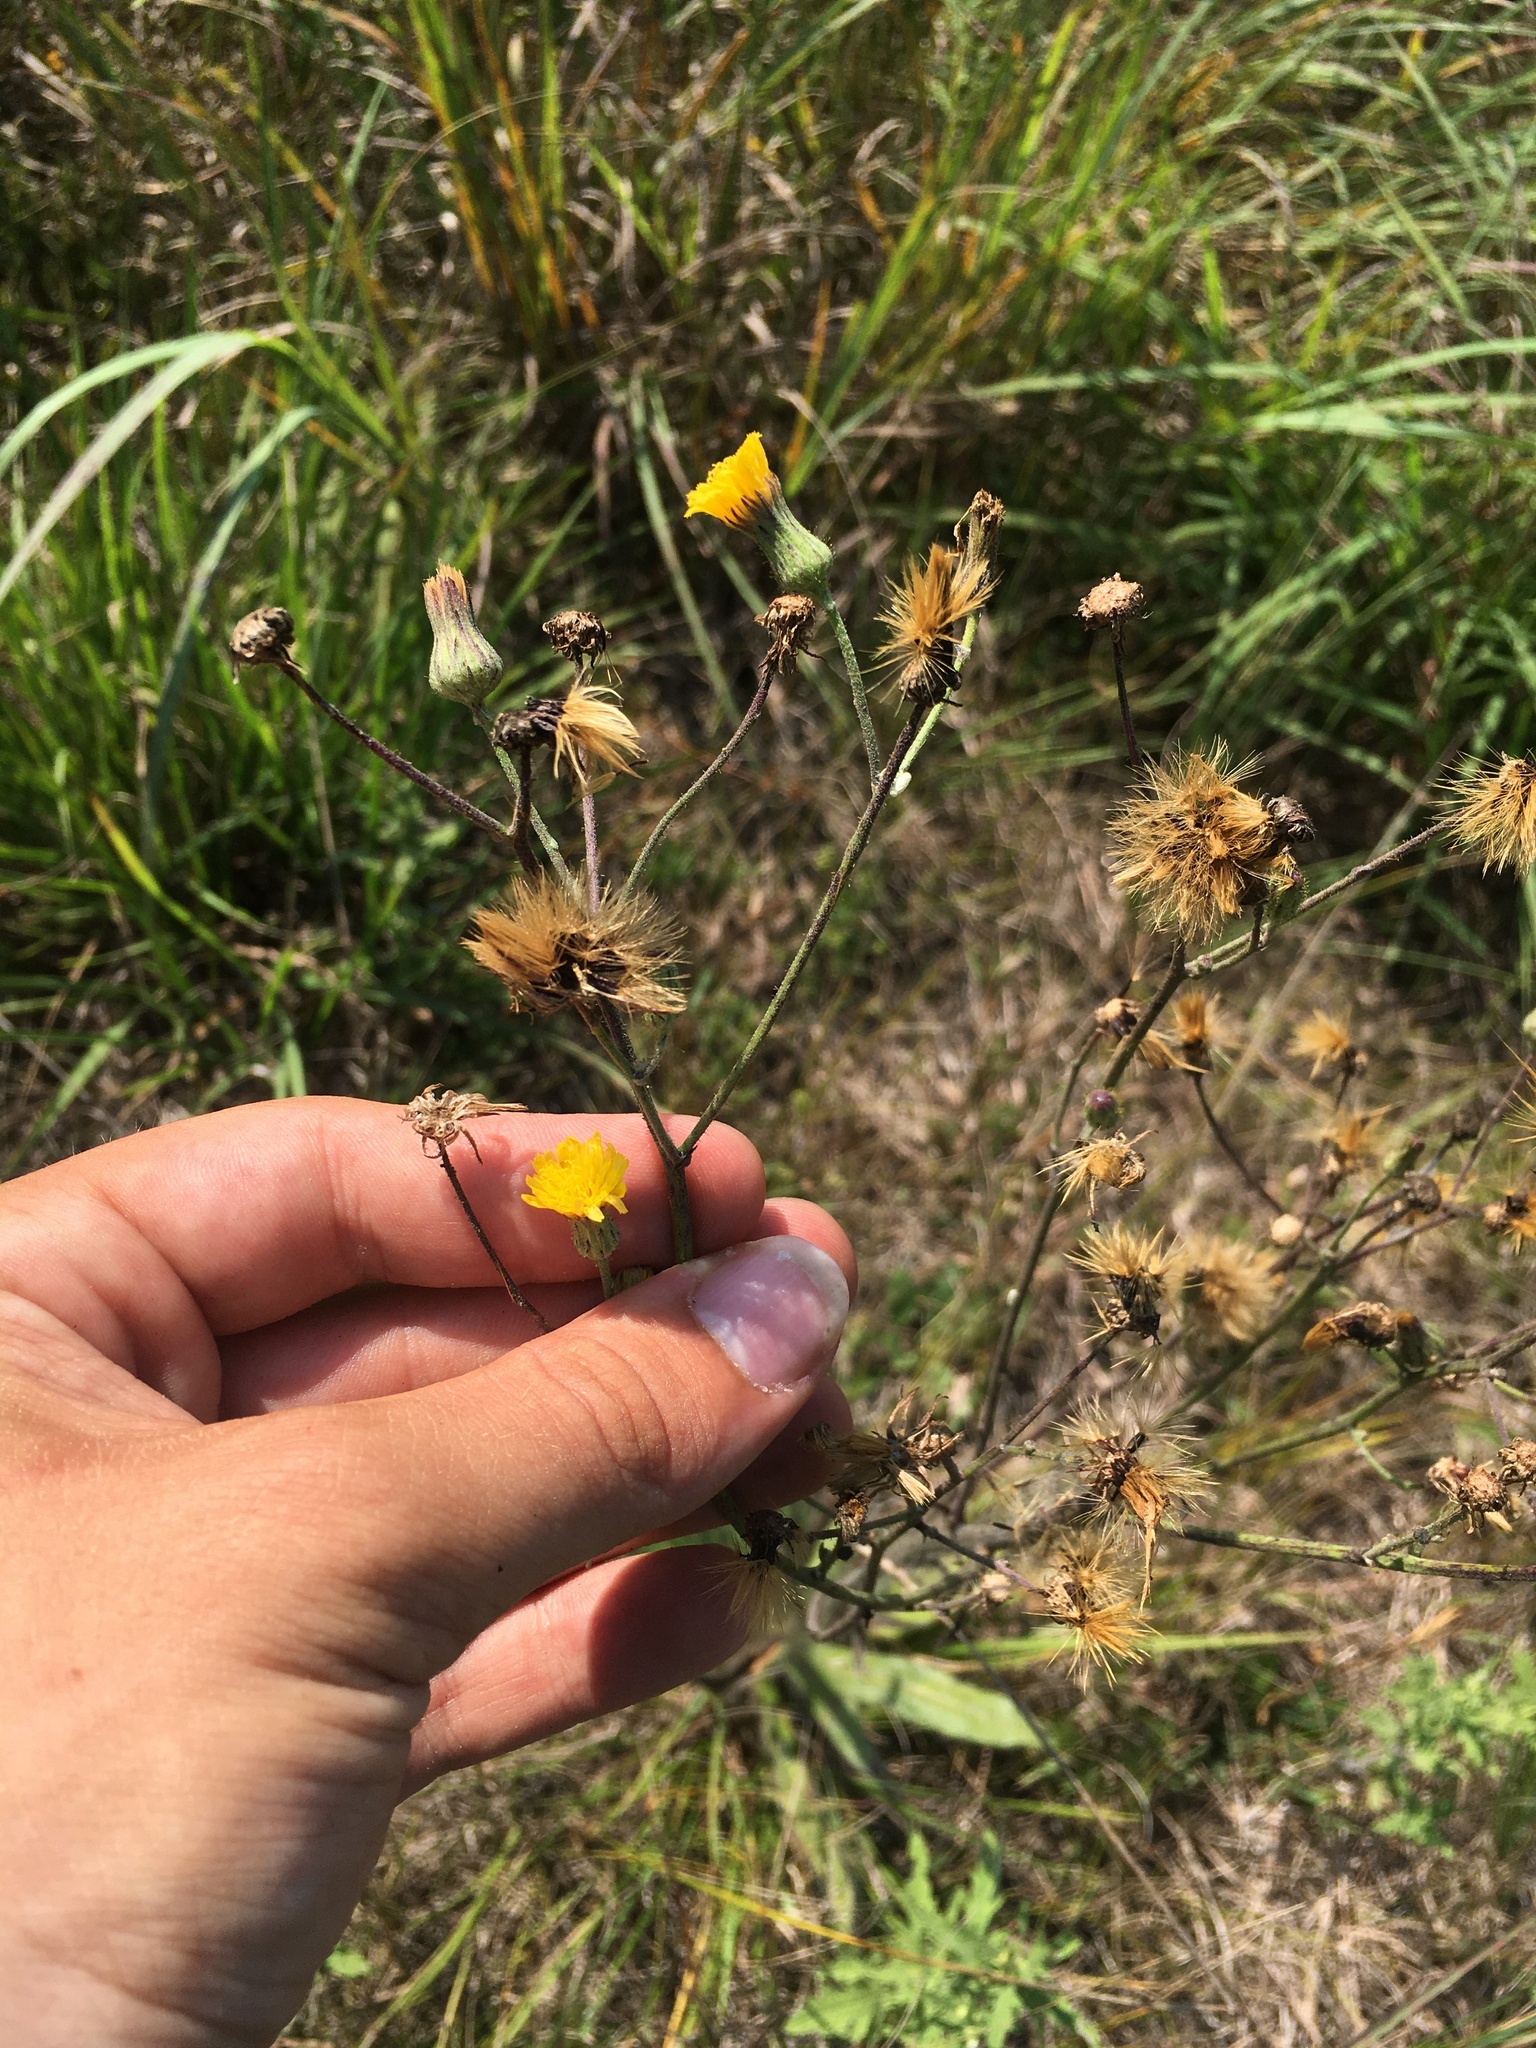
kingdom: Plantae
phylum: Tracheophyta
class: Magnoliopsida
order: Asterales
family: Asteraceae
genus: Hieracium
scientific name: Hieracium longipilum
